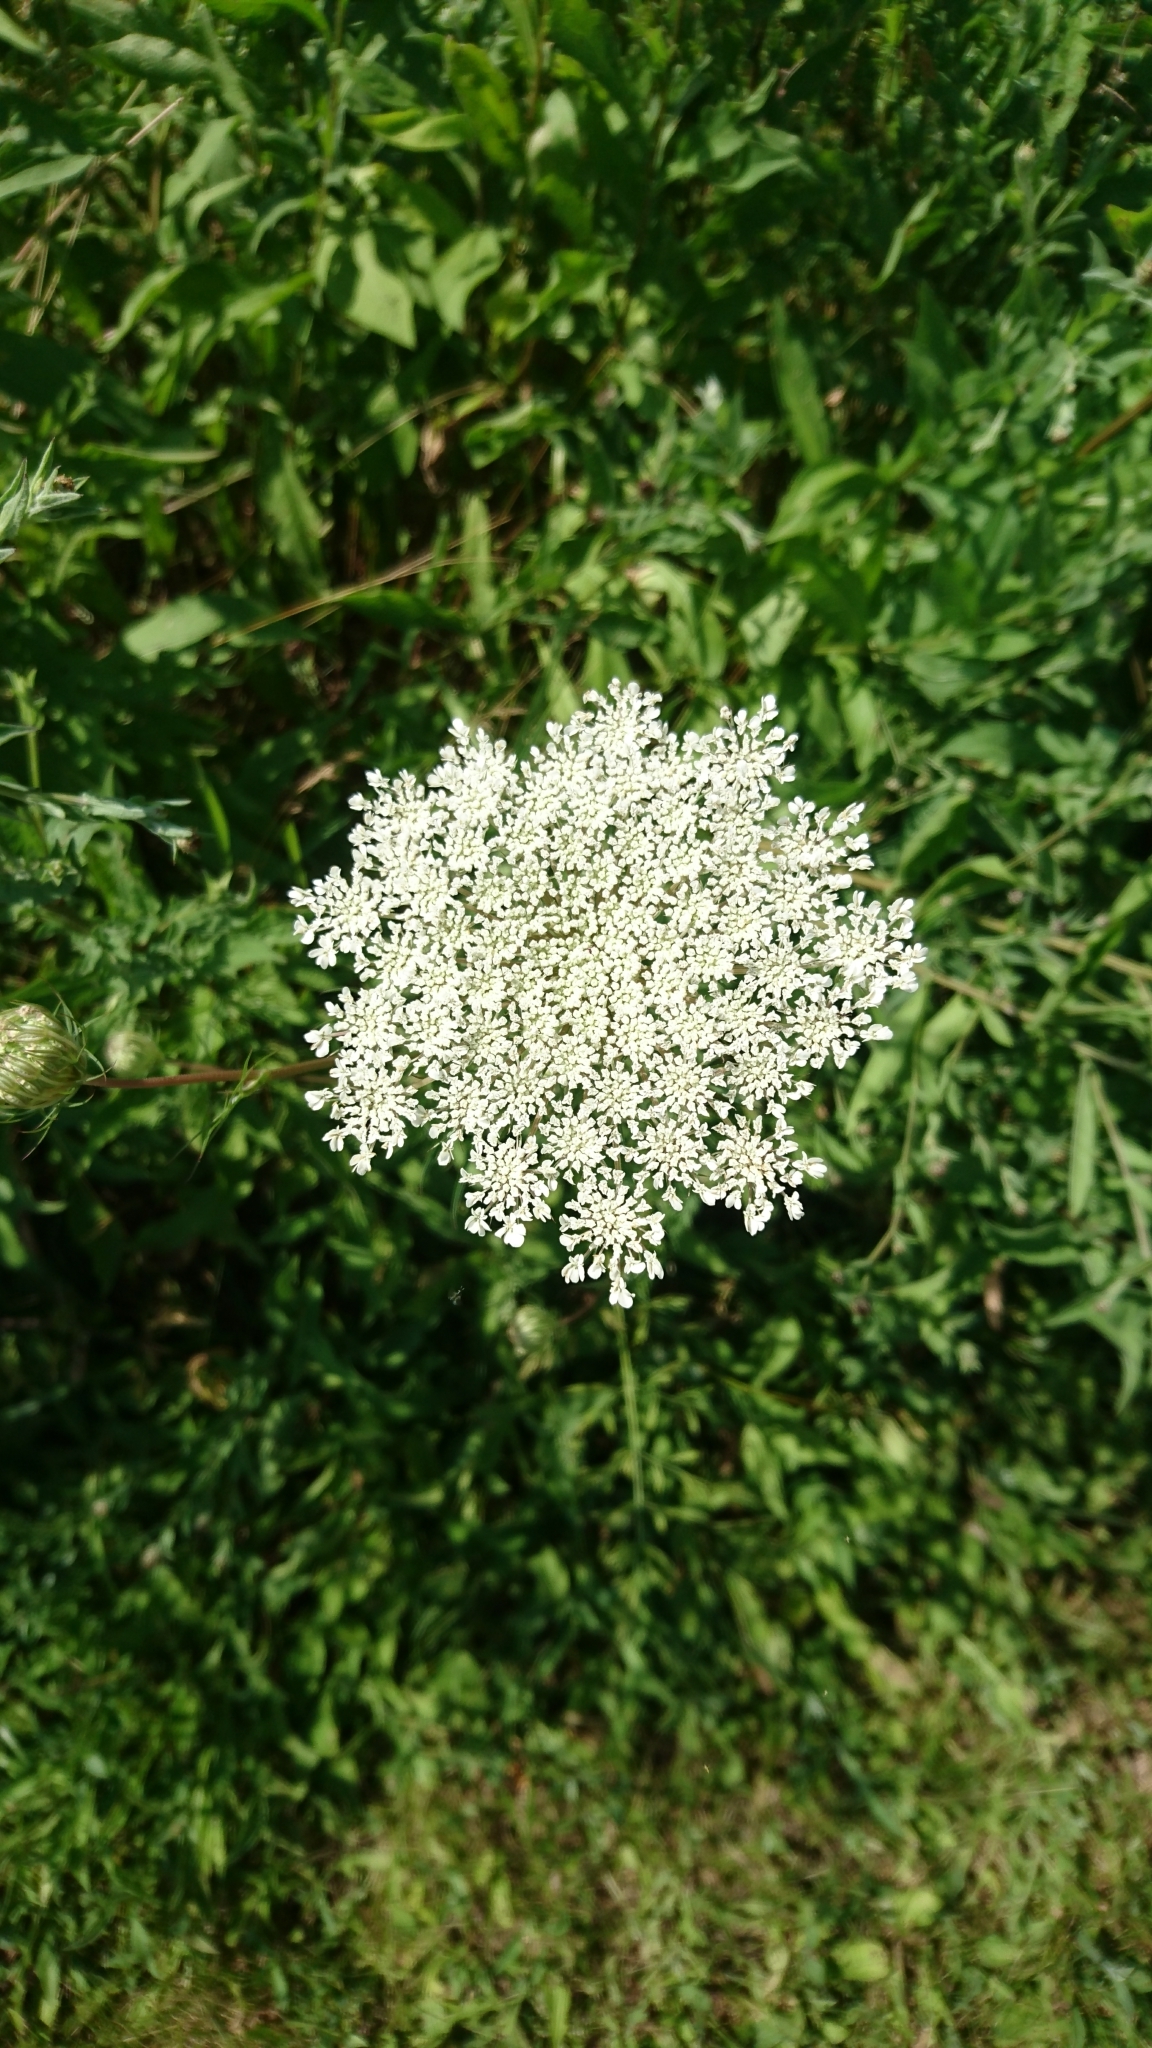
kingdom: Plantae
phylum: Tracheophyta
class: Magnoliopsida
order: Apiales
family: Apiaceae
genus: Daucus
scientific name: Daucus carota
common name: Wild carrot
